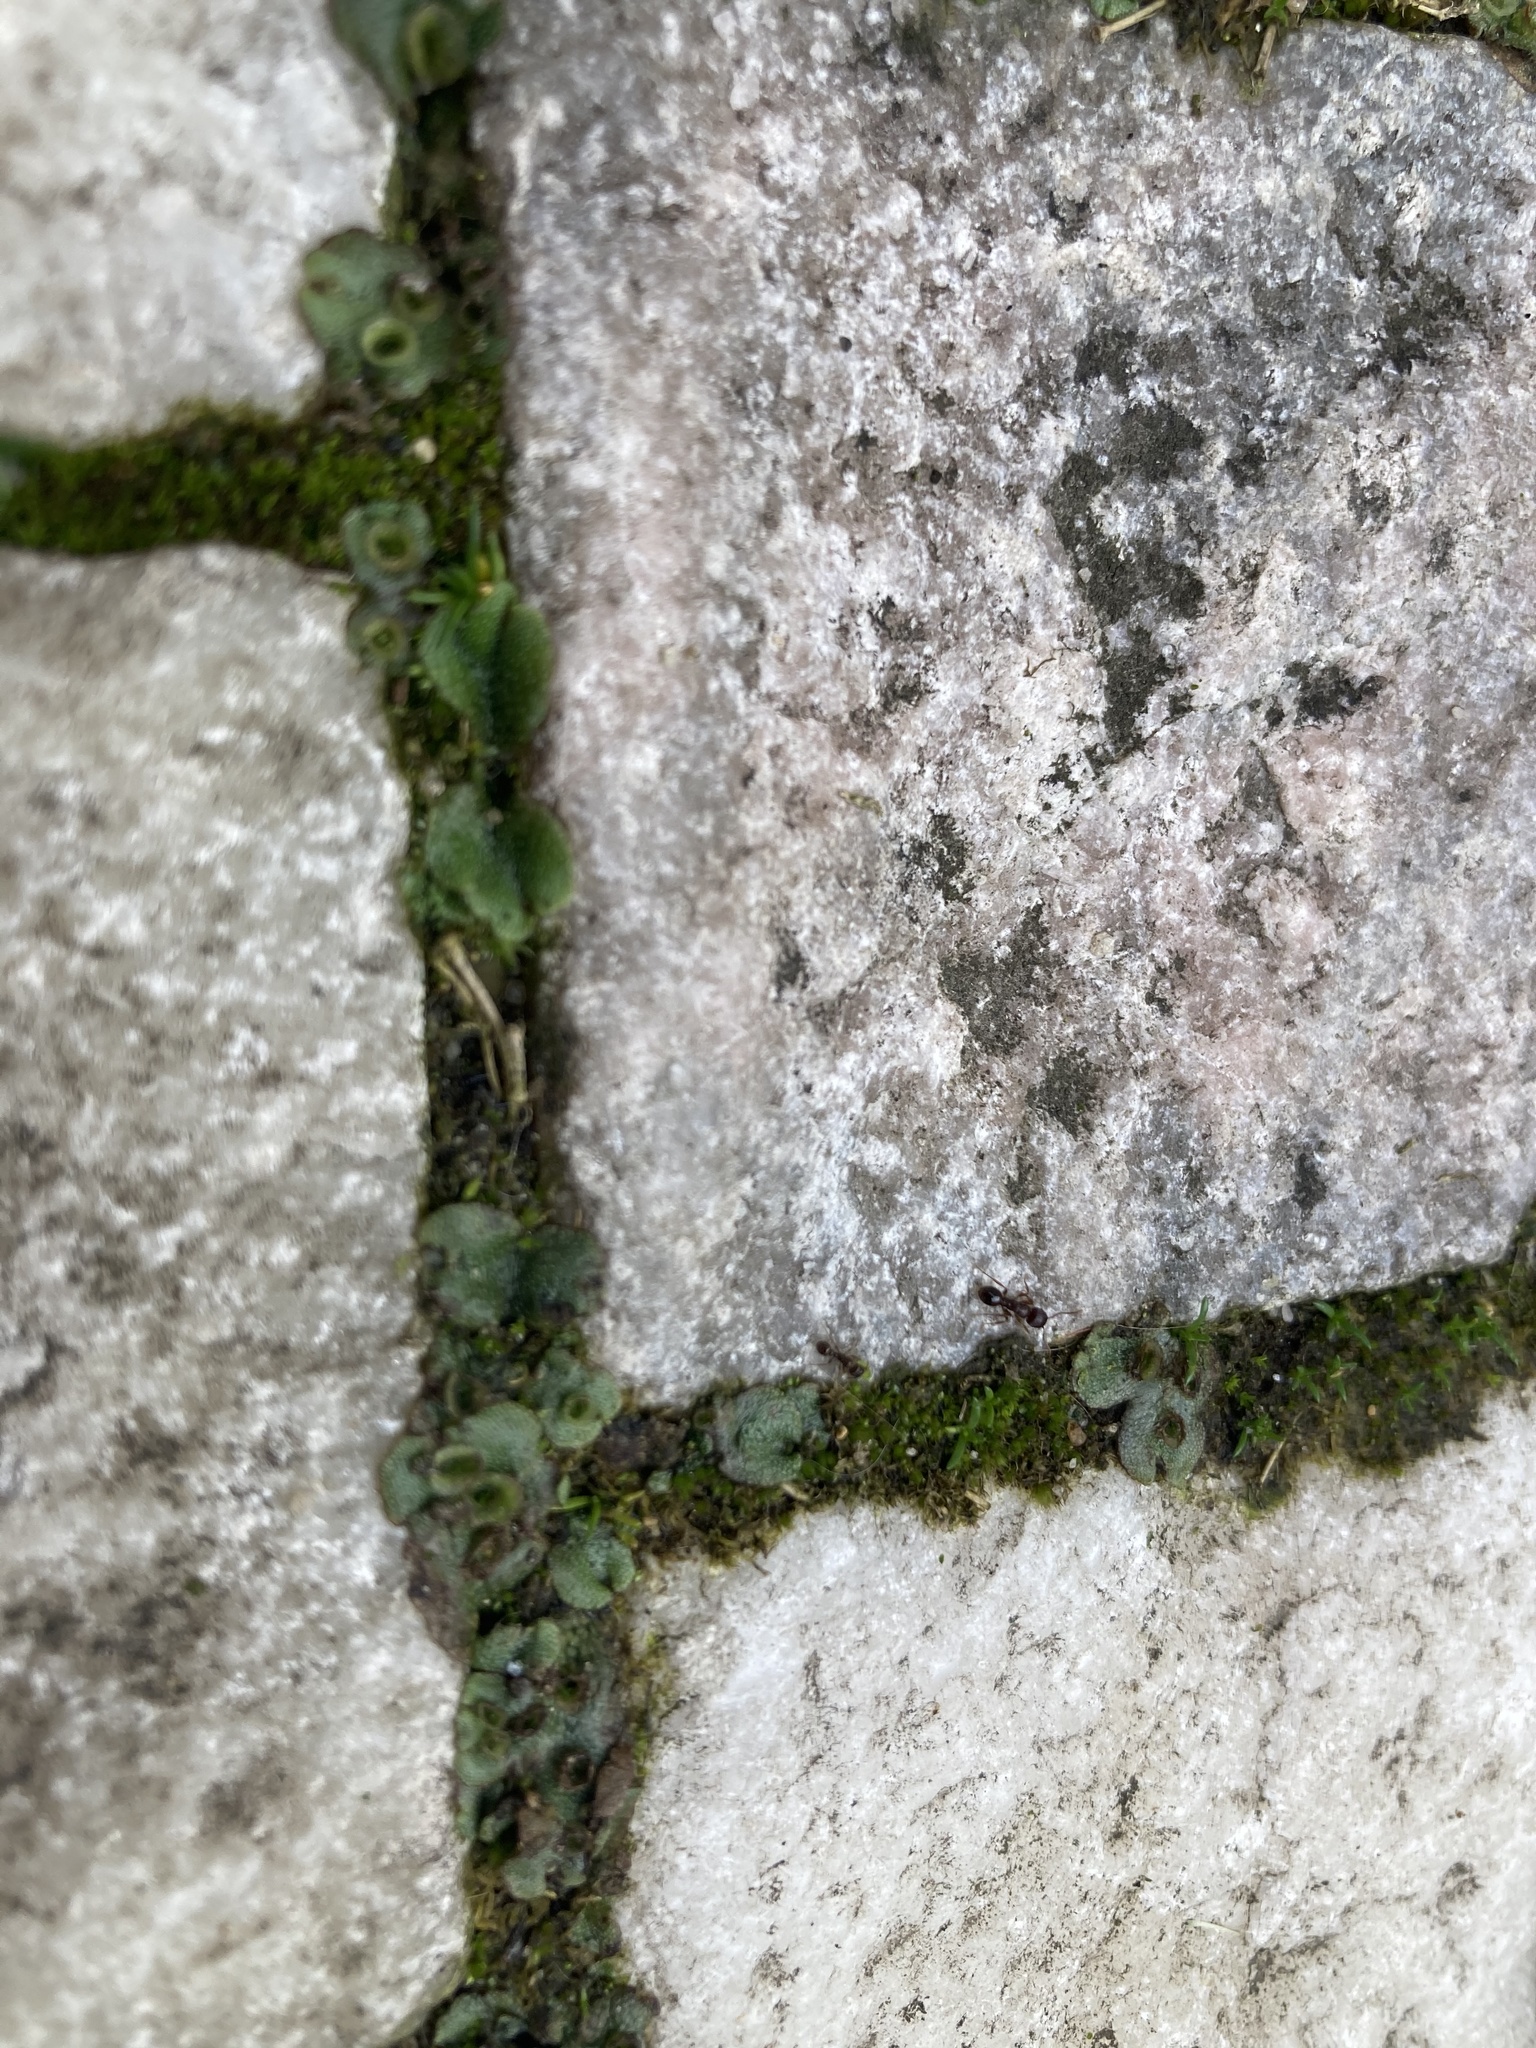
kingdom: Plantae
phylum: Marchantiophyta
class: Marchantiopsida
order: Marchantiales
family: Marchantiaceae
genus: Marchantia
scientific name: Marchantia polymorpha
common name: Common liverwort
